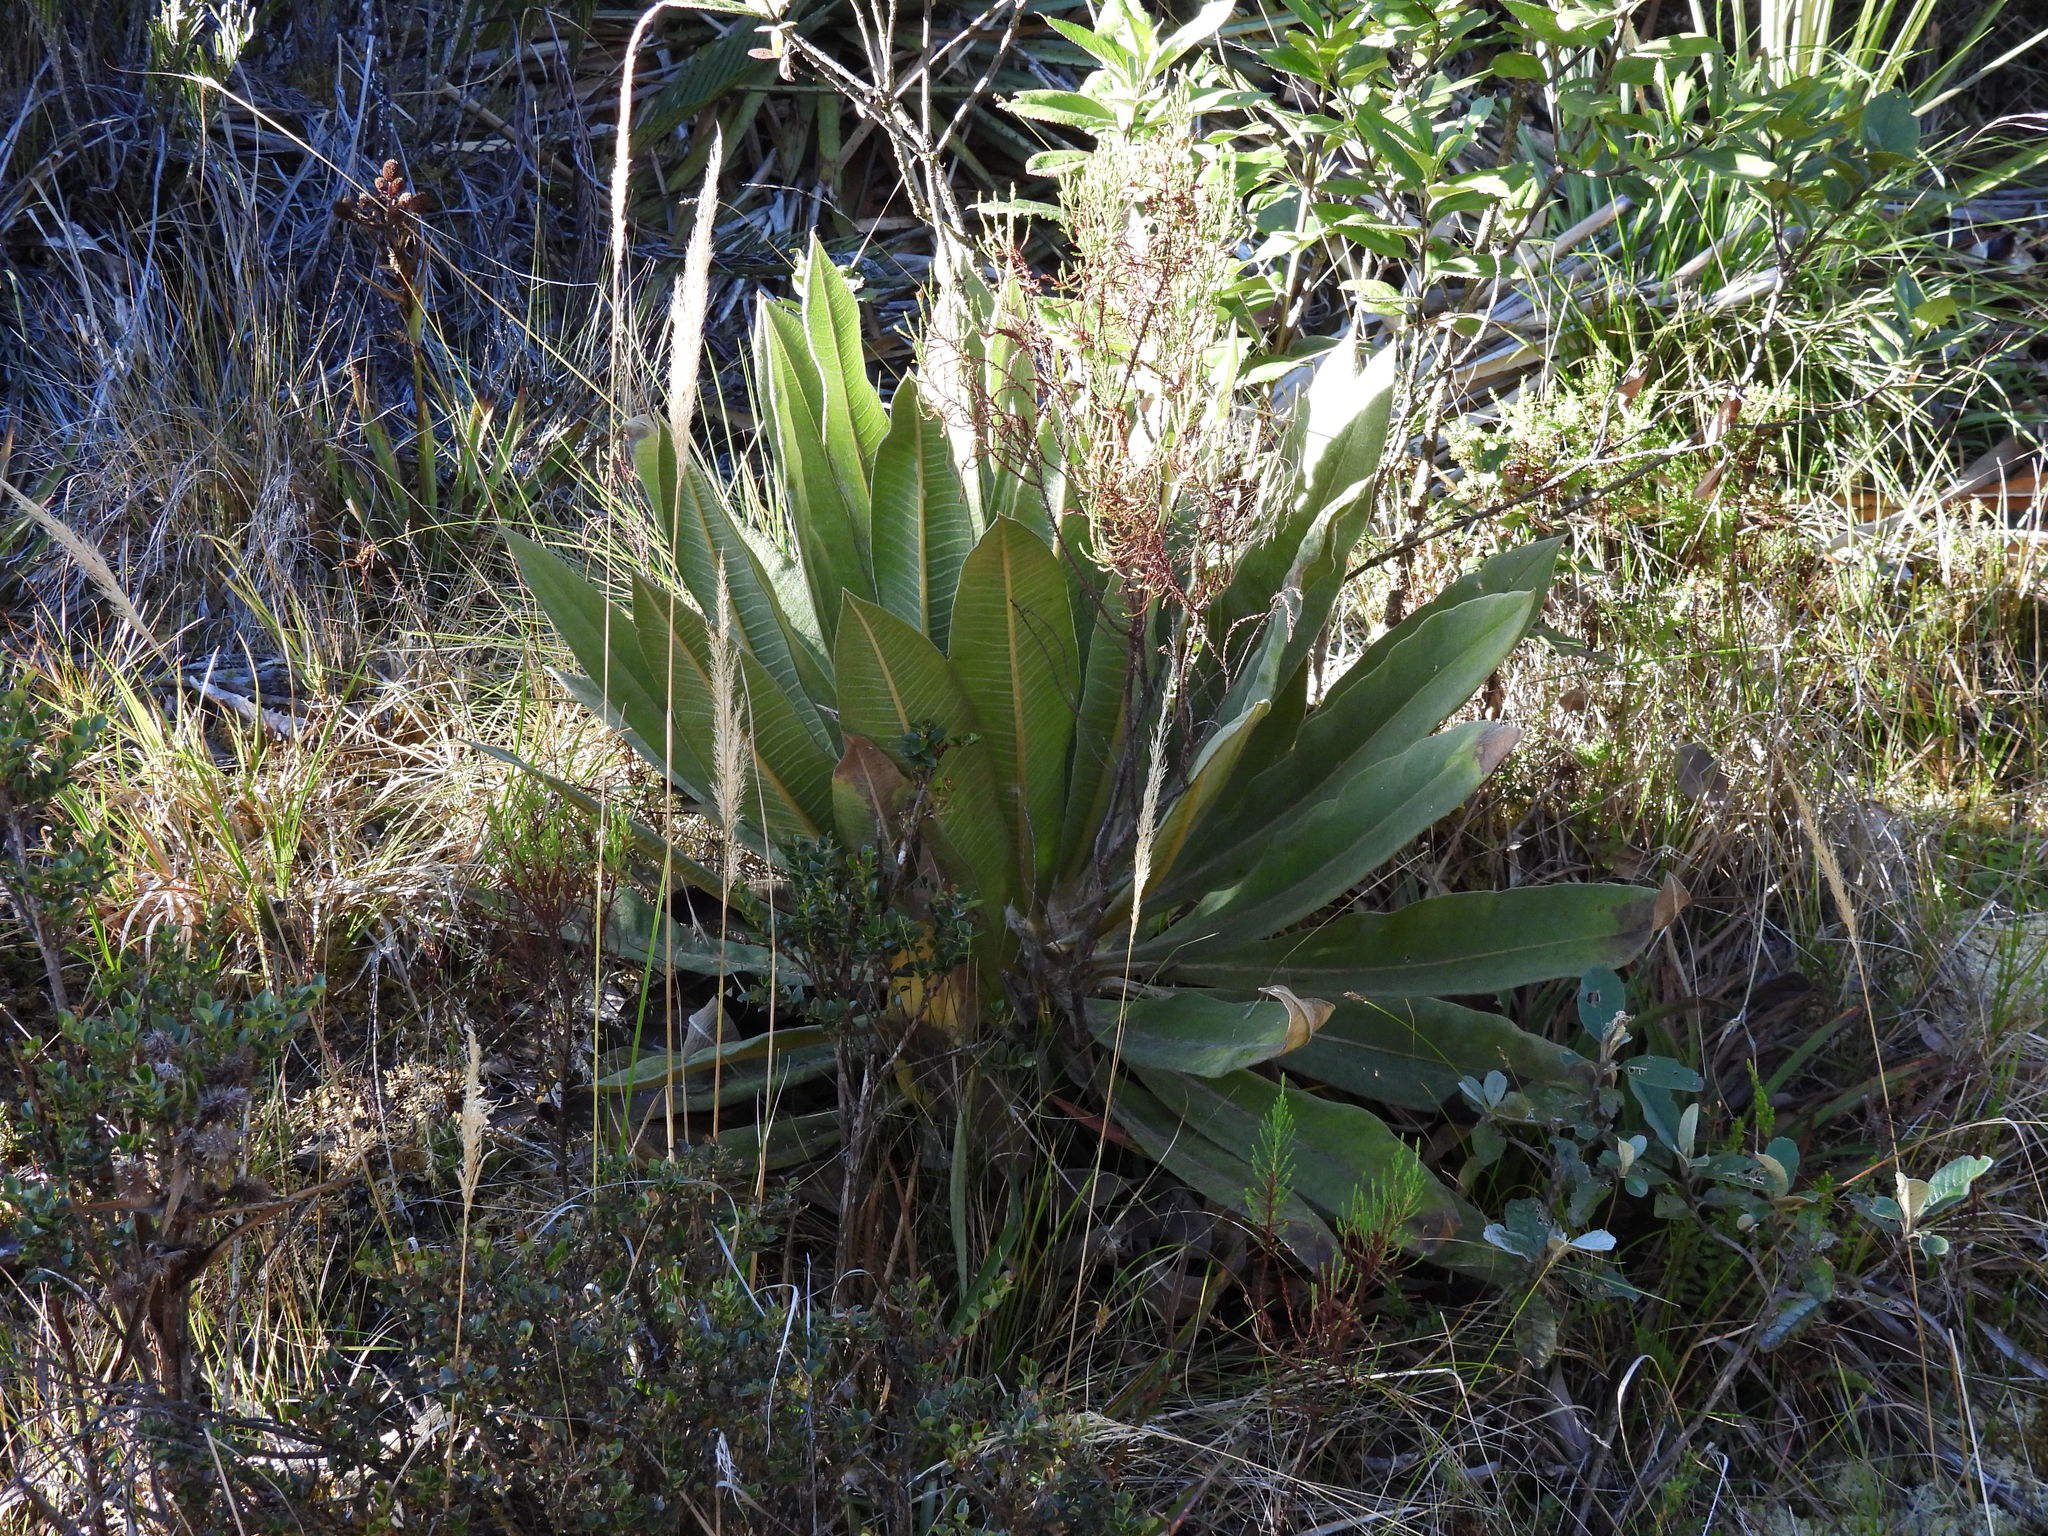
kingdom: Plantae
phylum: Tracheophyta
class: Magnoliopsida
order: Asterales
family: Asteraceae
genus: Espeletia
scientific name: Espeletia uribei
